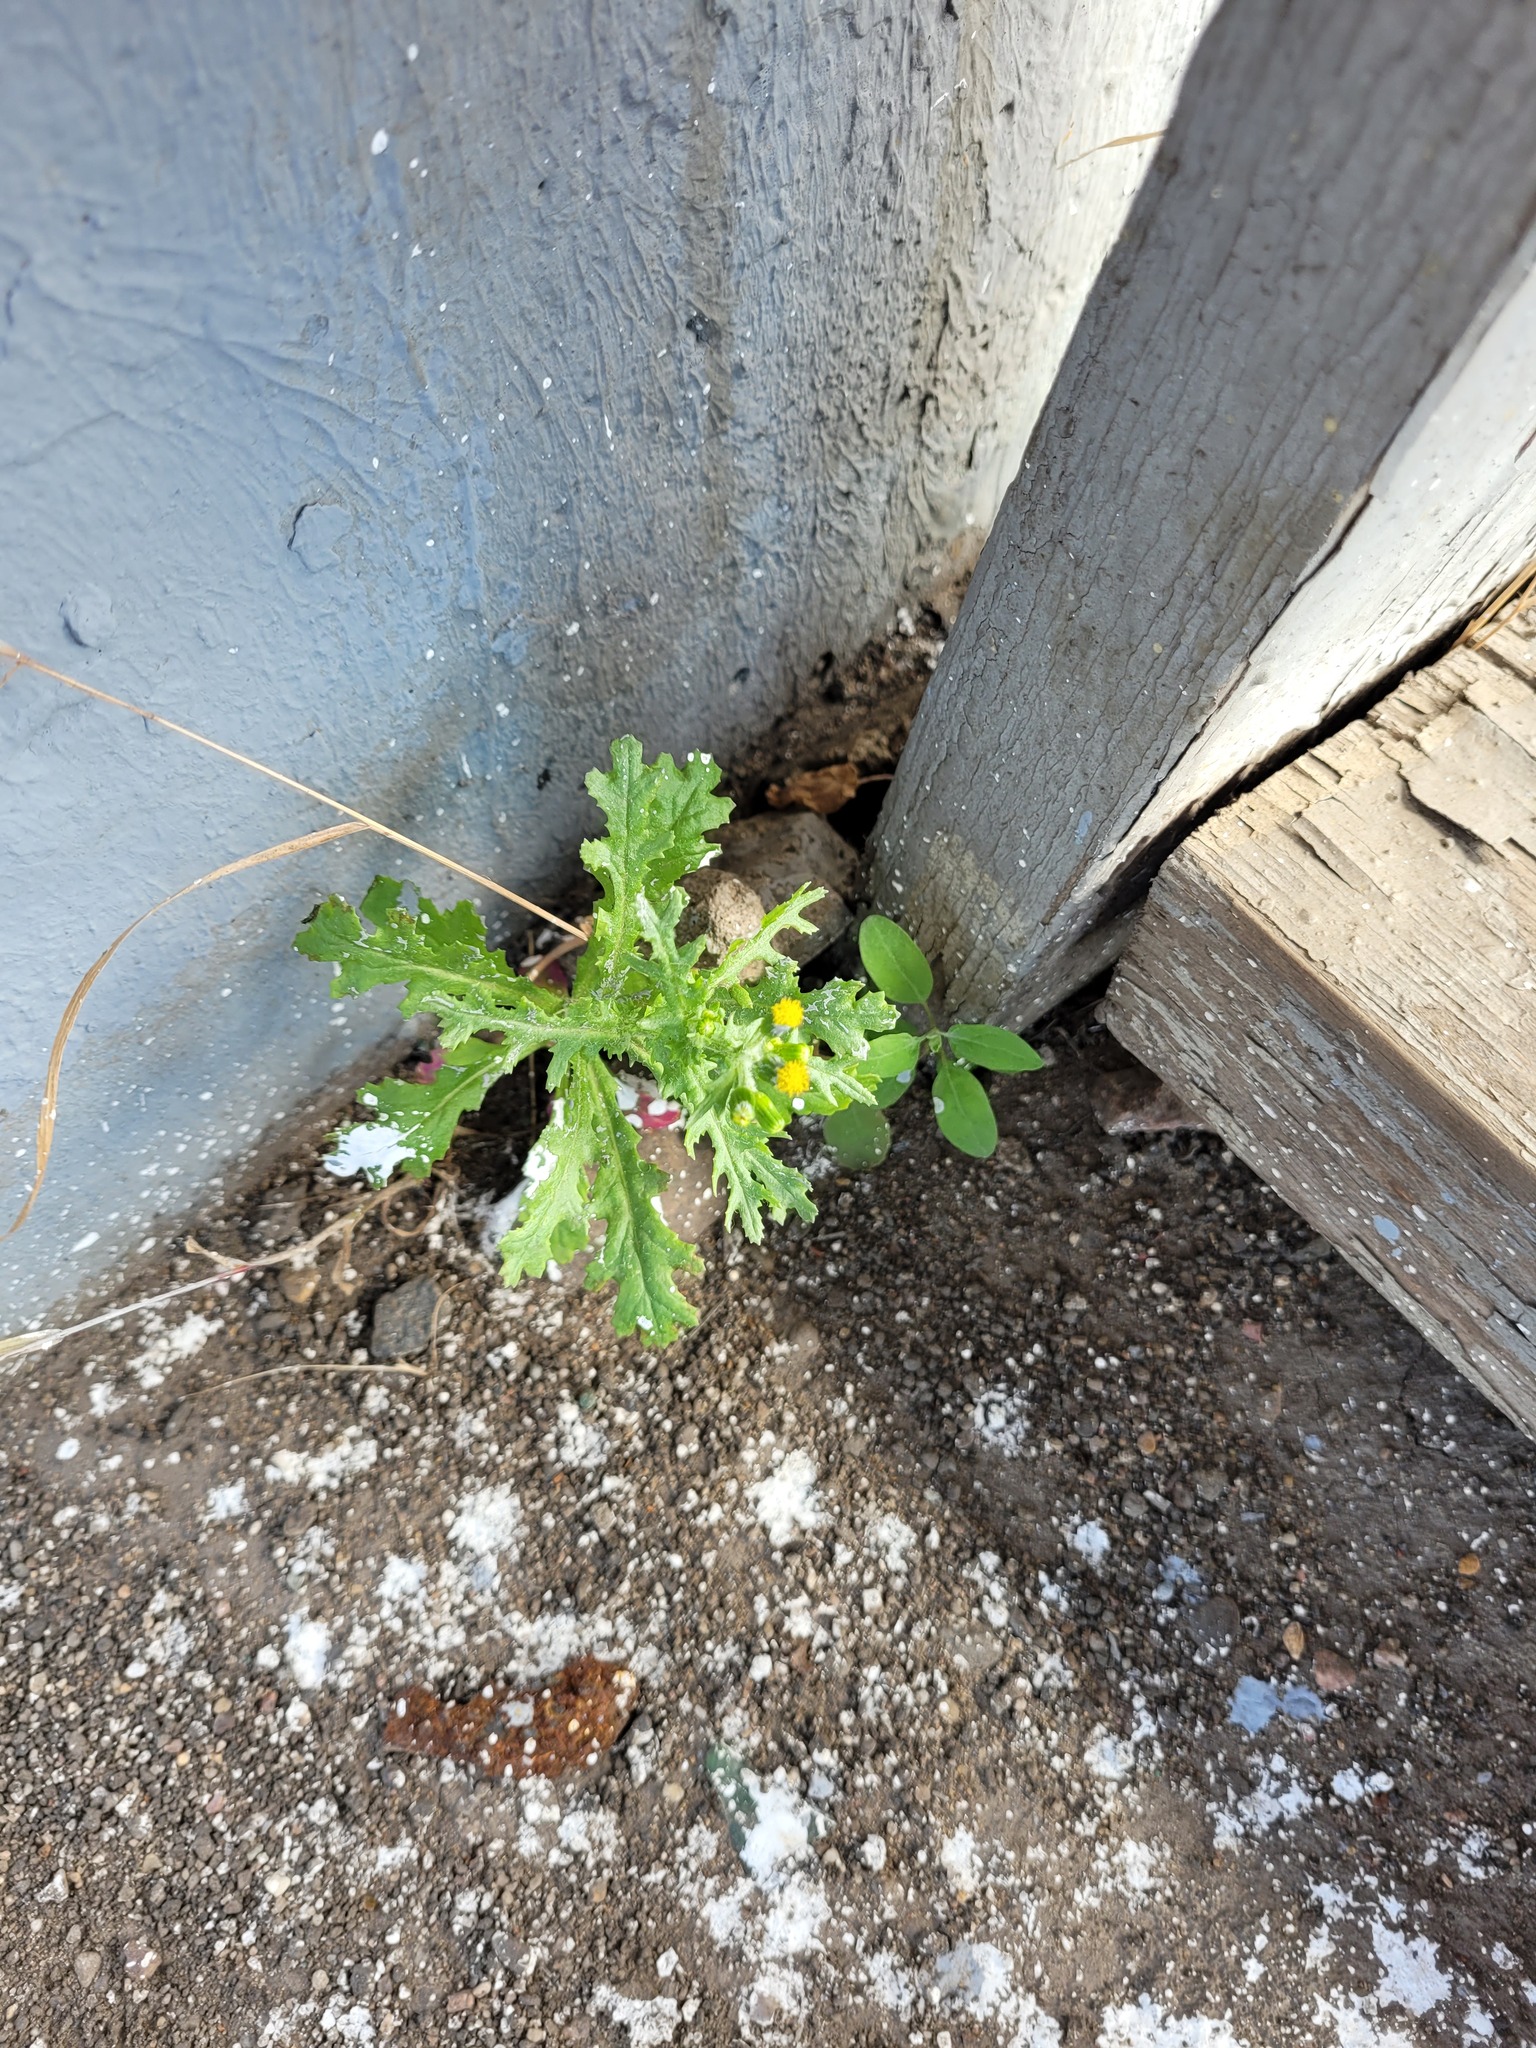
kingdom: Plantae
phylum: Tracheophyta
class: Magnoliopsida
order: Asterales
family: Asteraceae
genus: Senecio
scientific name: Senecio vulgaris
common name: Old-man-in-the-spring
